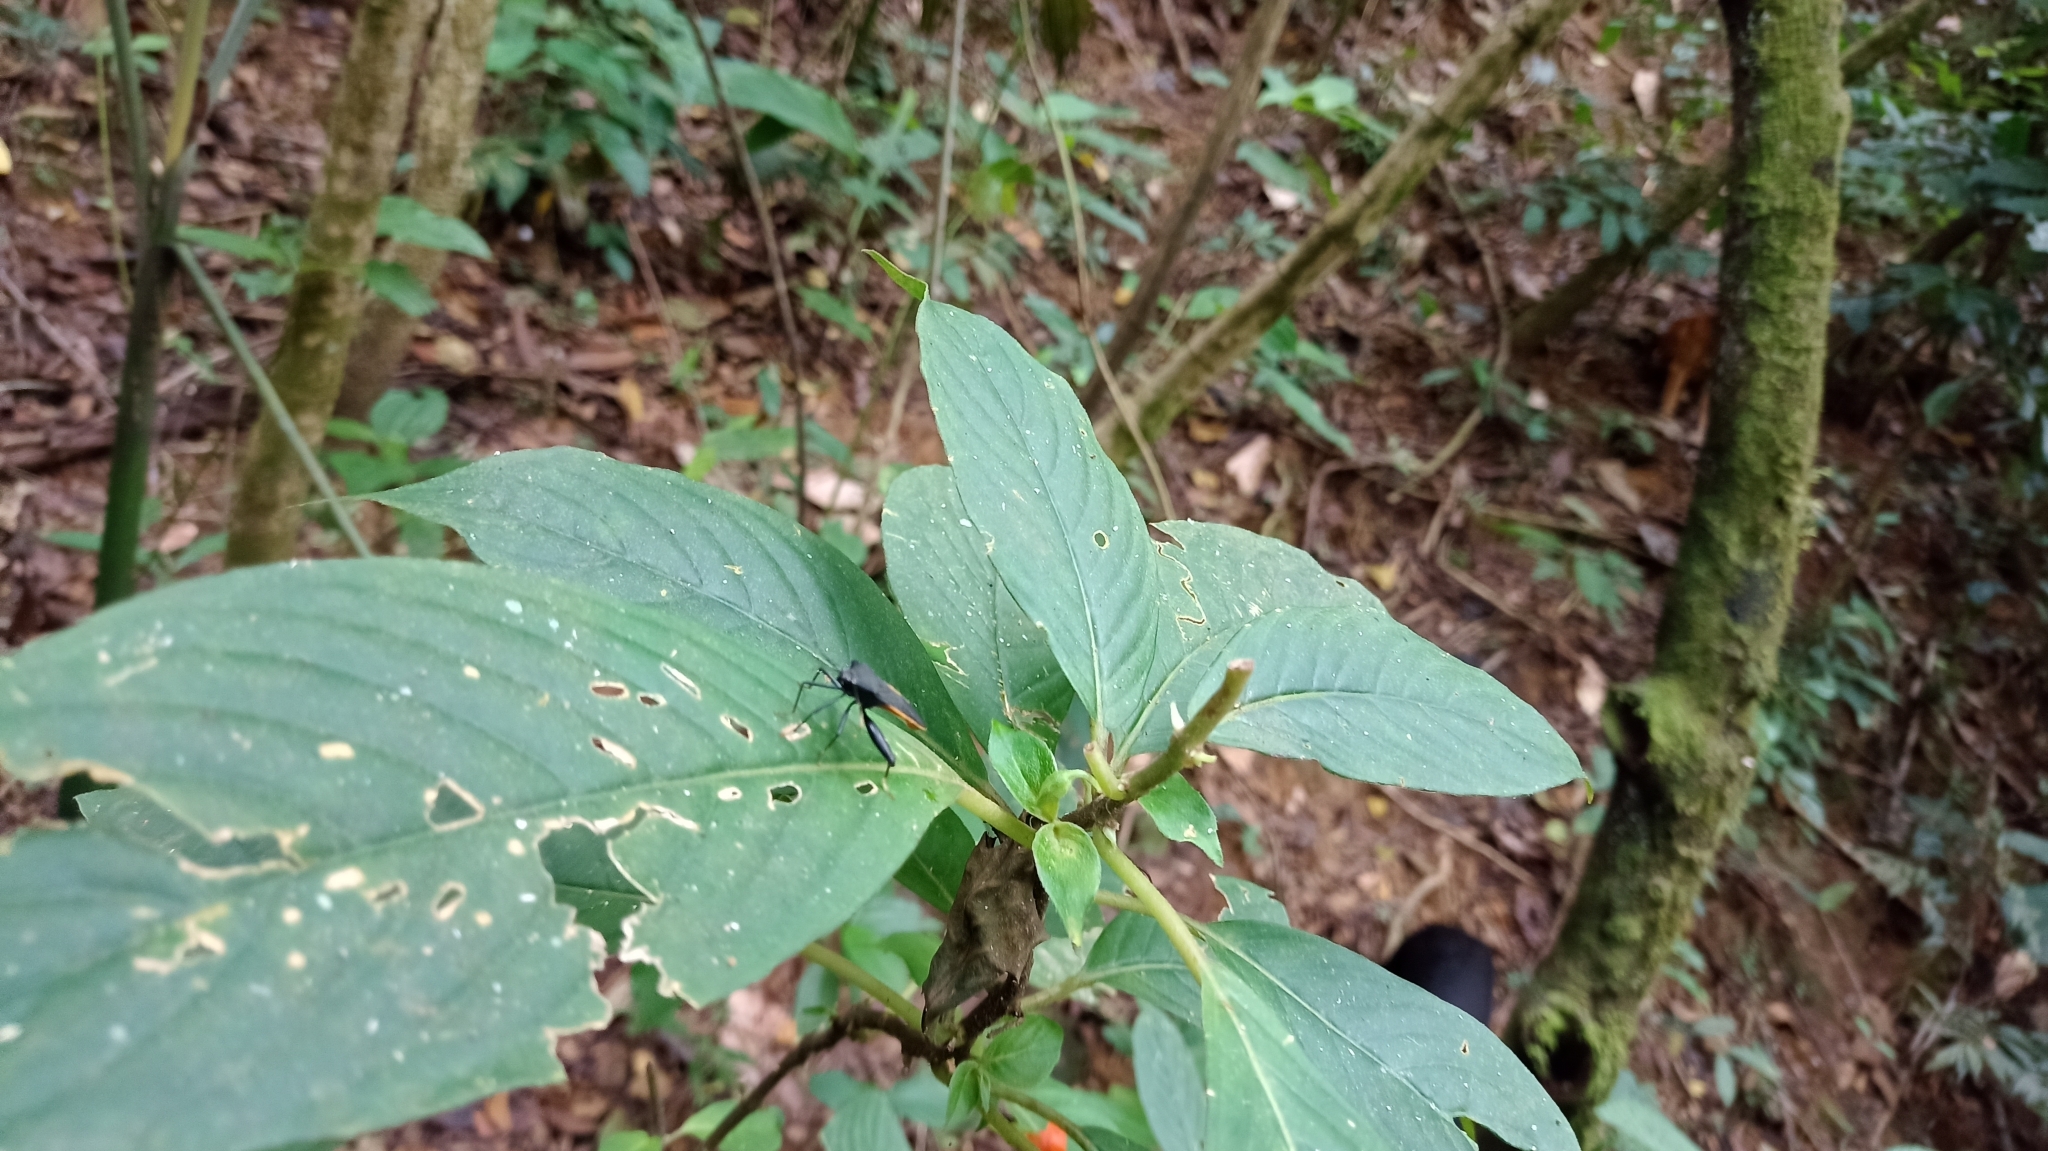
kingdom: Animalia
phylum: Arthropoda
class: Insecta
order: Hemiptera
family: Coreidae
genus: Nematopus
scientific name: Nematopus indus
